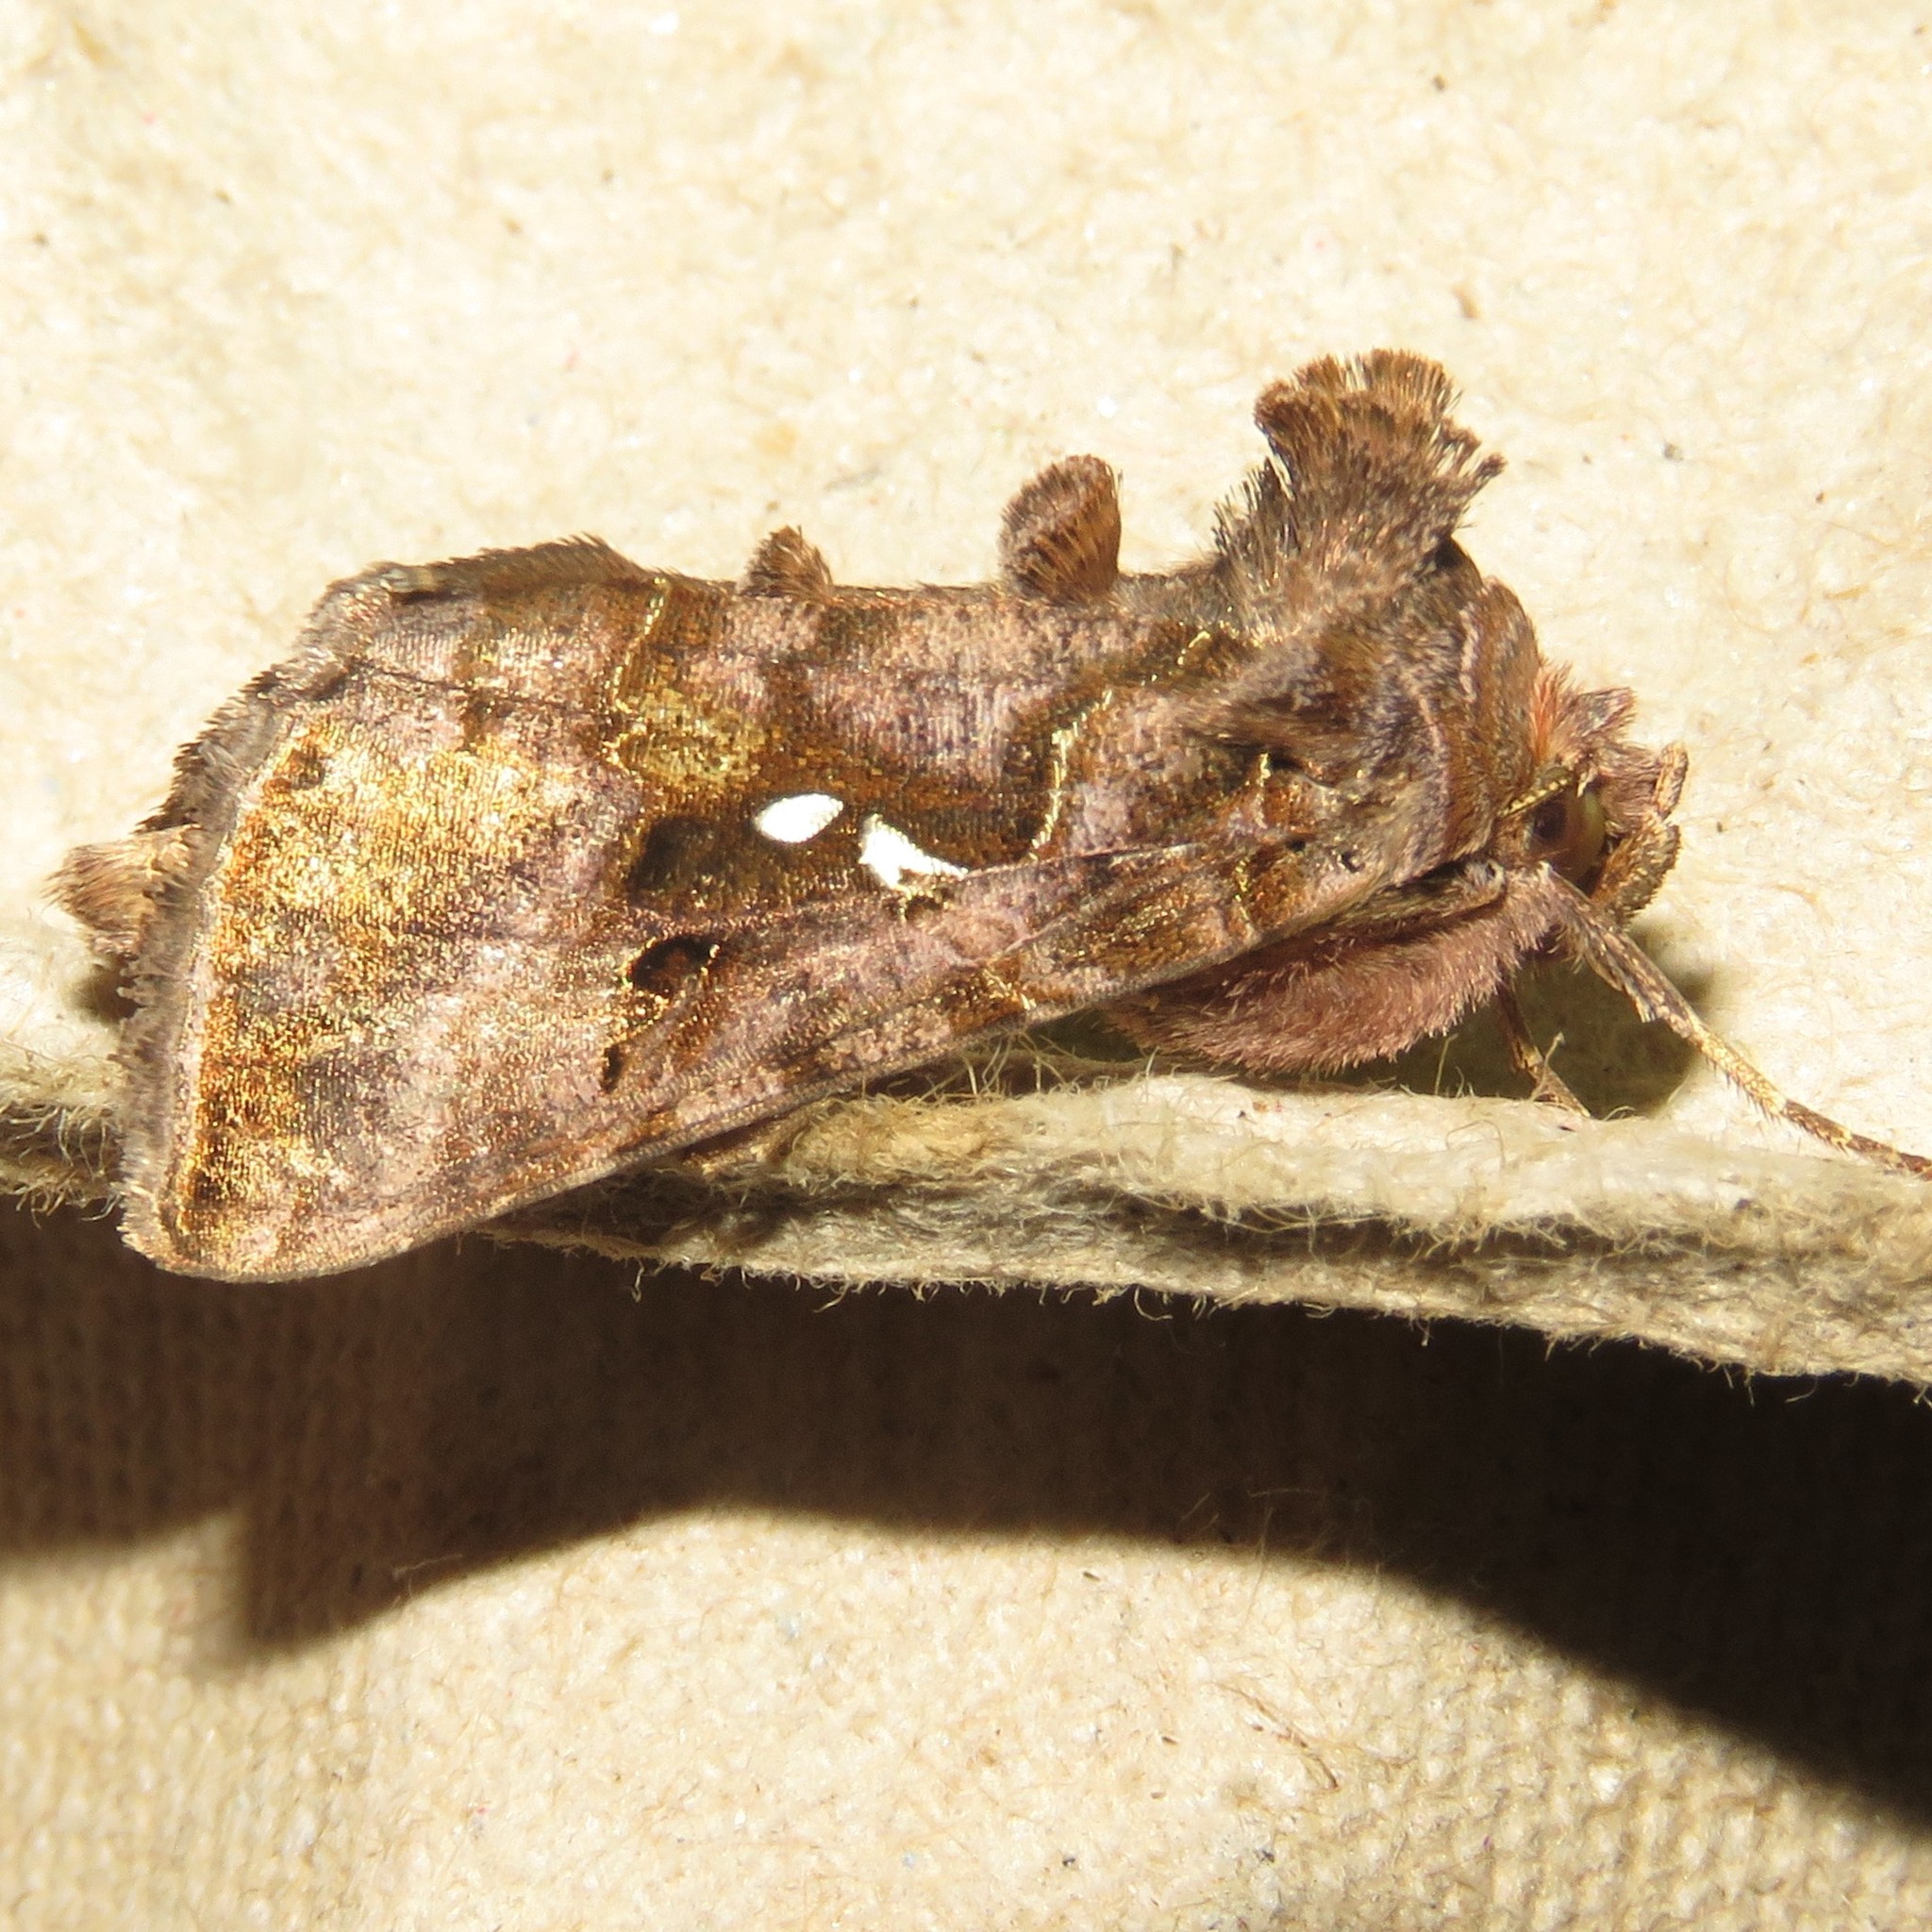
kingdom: Animalia
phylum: Arthropoda
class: Insecta
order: Lepidoptera
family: Noctuidae
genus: Autographa
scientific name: Autographa precationis
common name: Common looper moth
